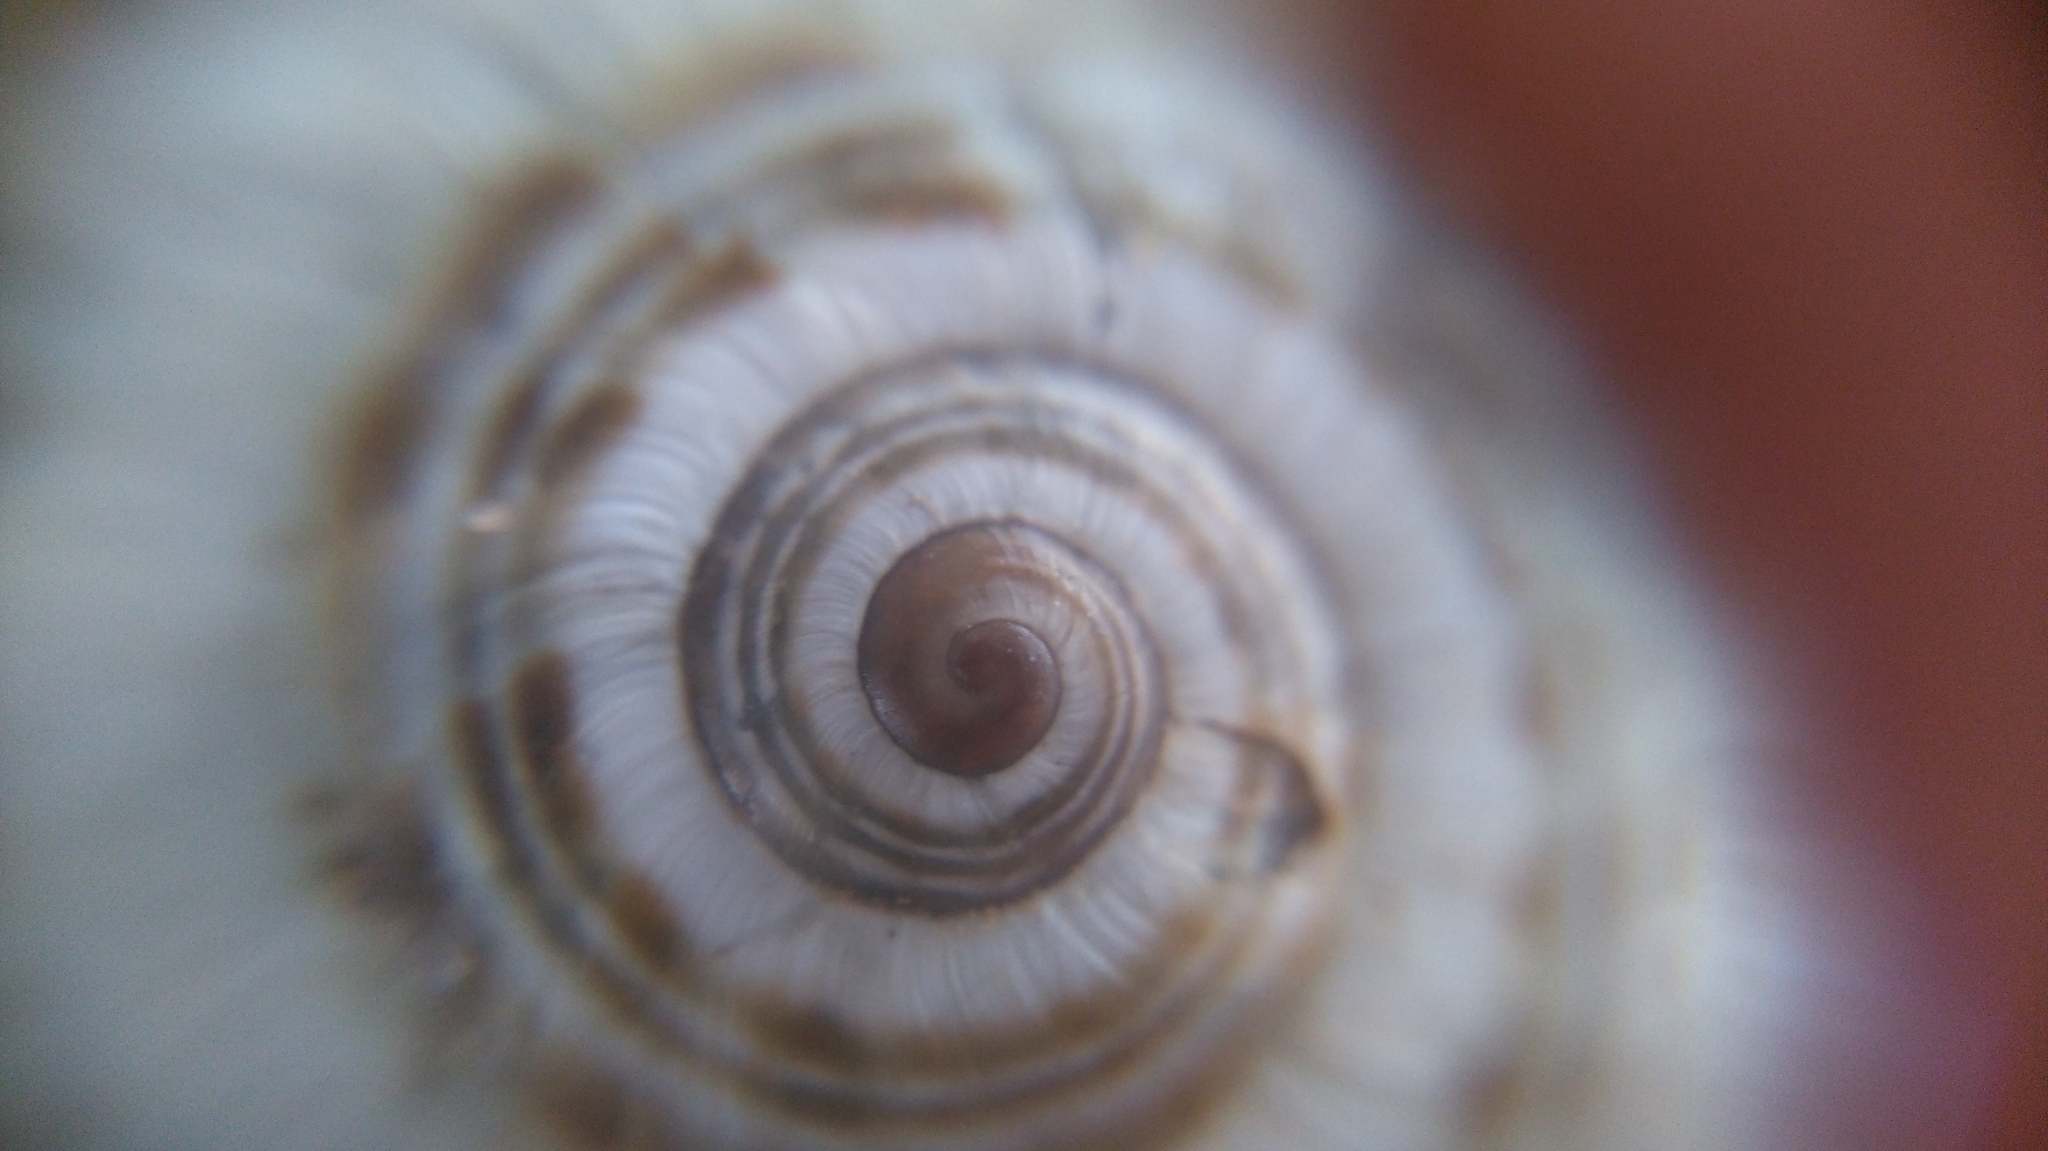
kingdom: Animalia
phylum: Mollusca
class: Gastropoda
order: Stylommatophora
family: Helicidae
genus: Pseudotachea
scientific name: Pseudotachea splendida
